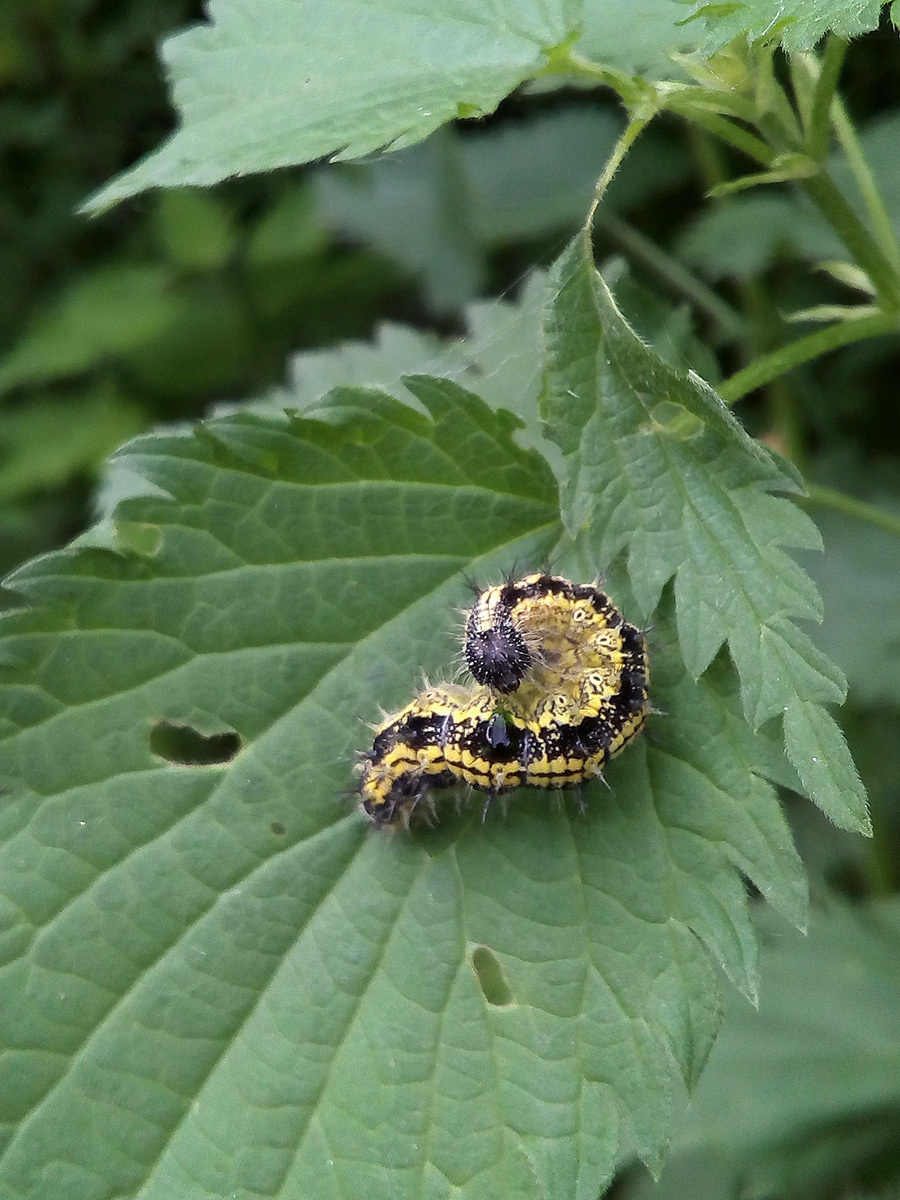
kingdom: Animalia
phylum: Arthropoda
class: Insecta
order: Lepidoptera
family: Nymphalidae
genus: Aglais
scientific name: Aglais urticae
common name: Small tortoiseshell
